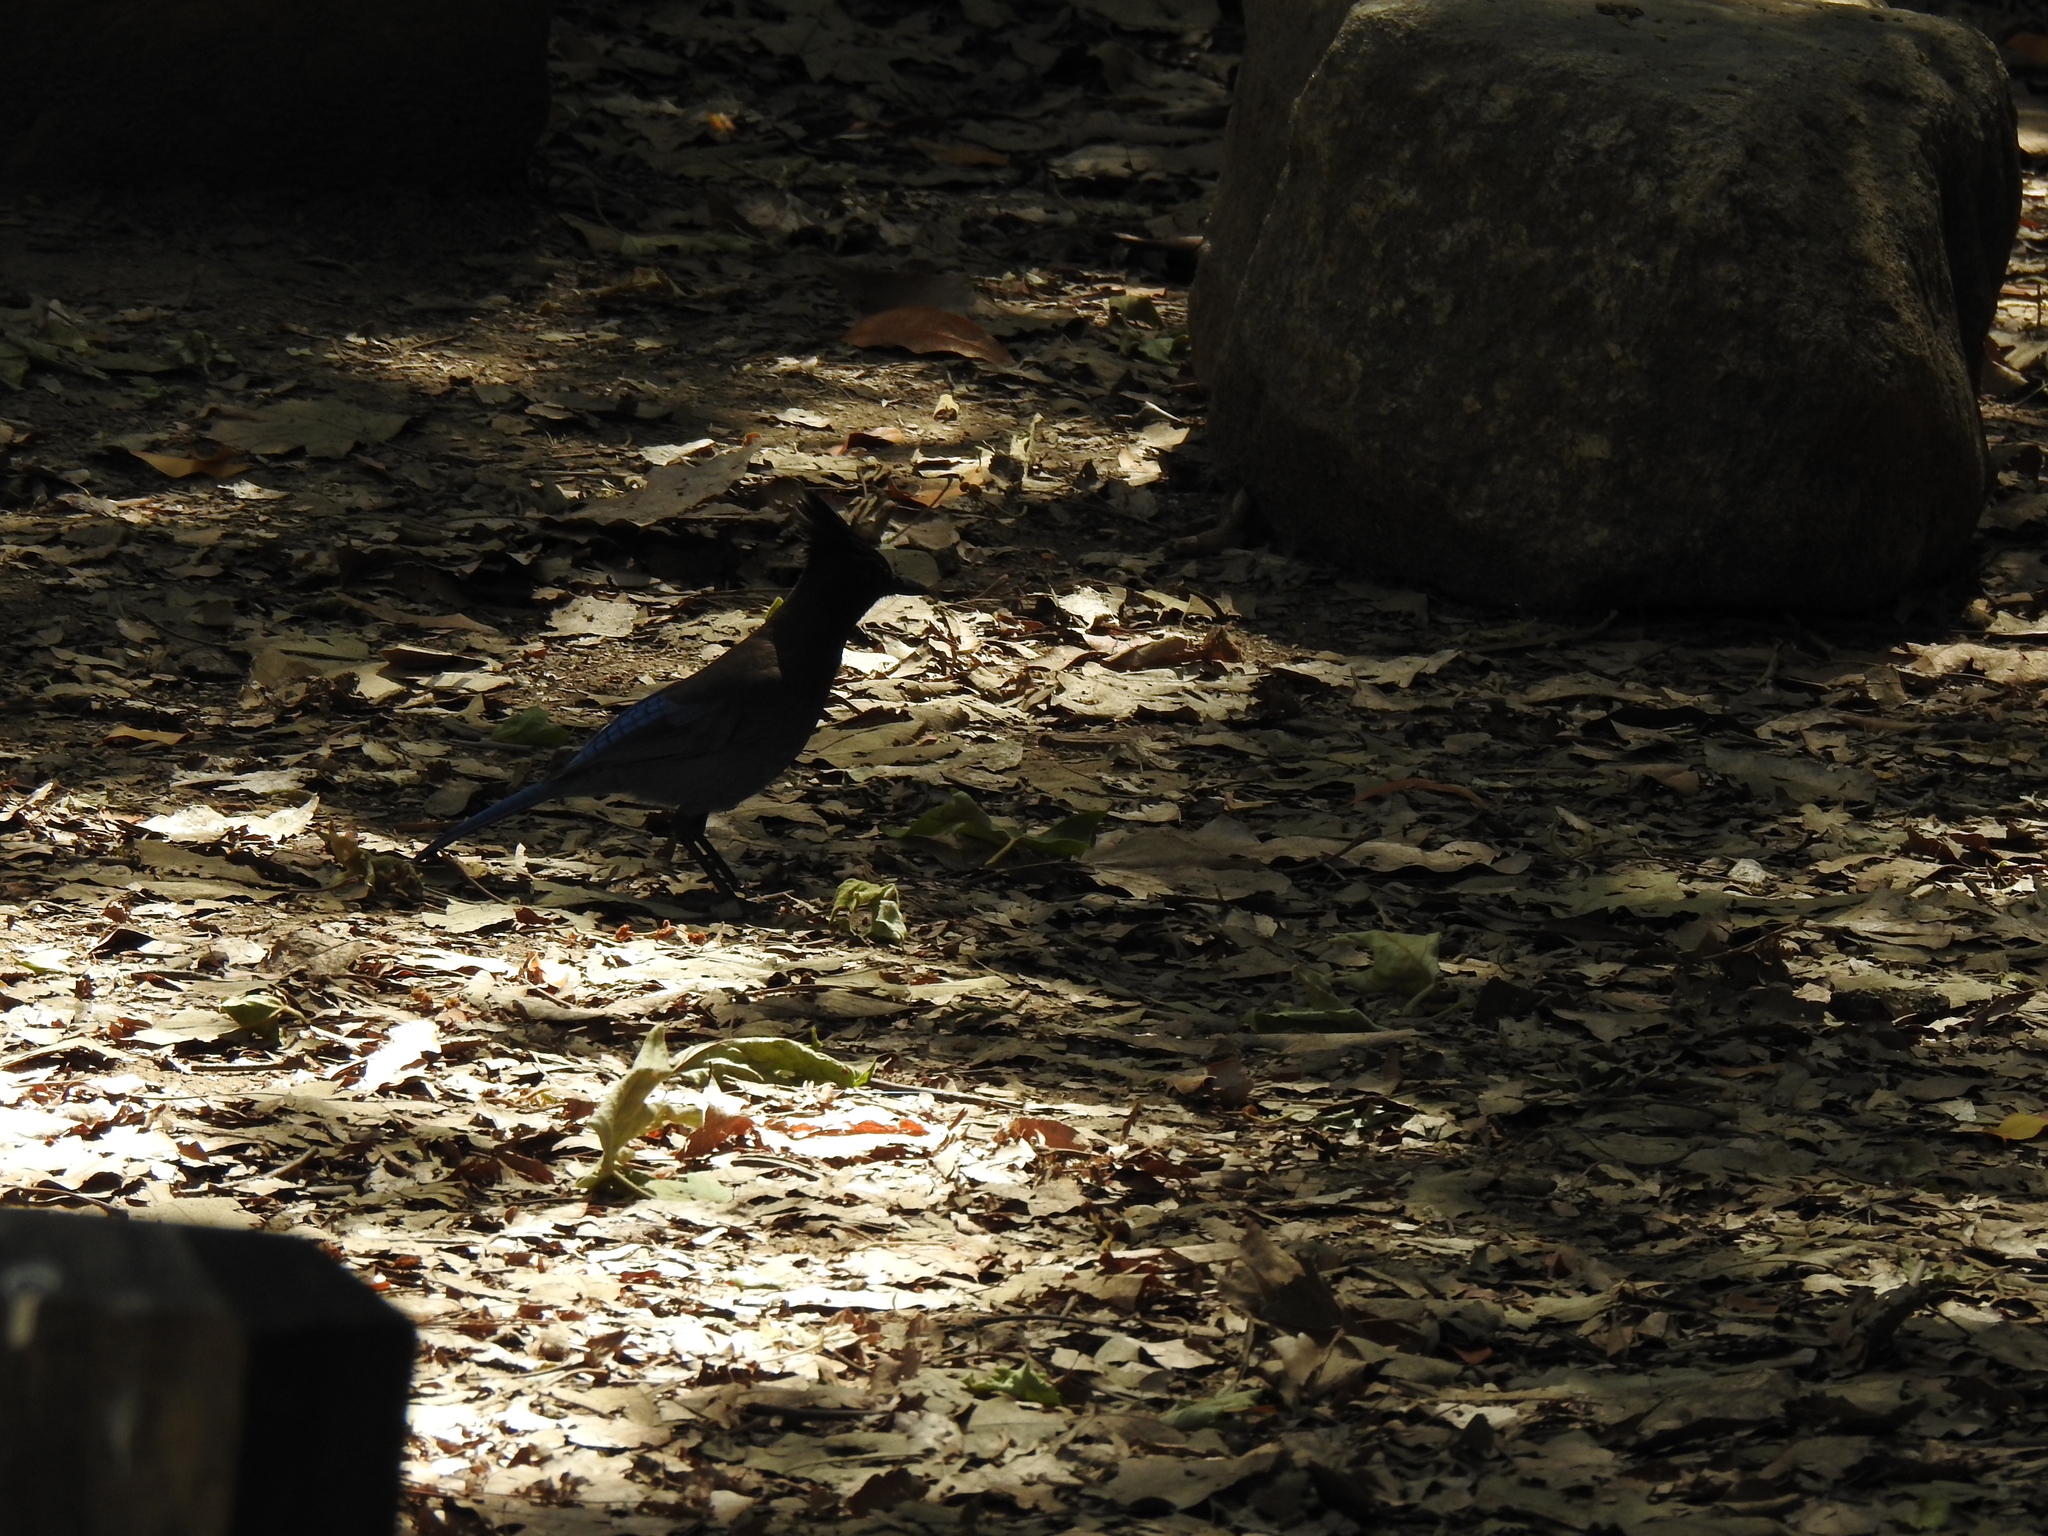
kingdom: Animalia
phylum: Chordata
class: Aves
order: Passeriformes
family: Corvidae
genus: Cyanocitta
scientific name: Cyanocitta stelleri
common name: Steller's jay
